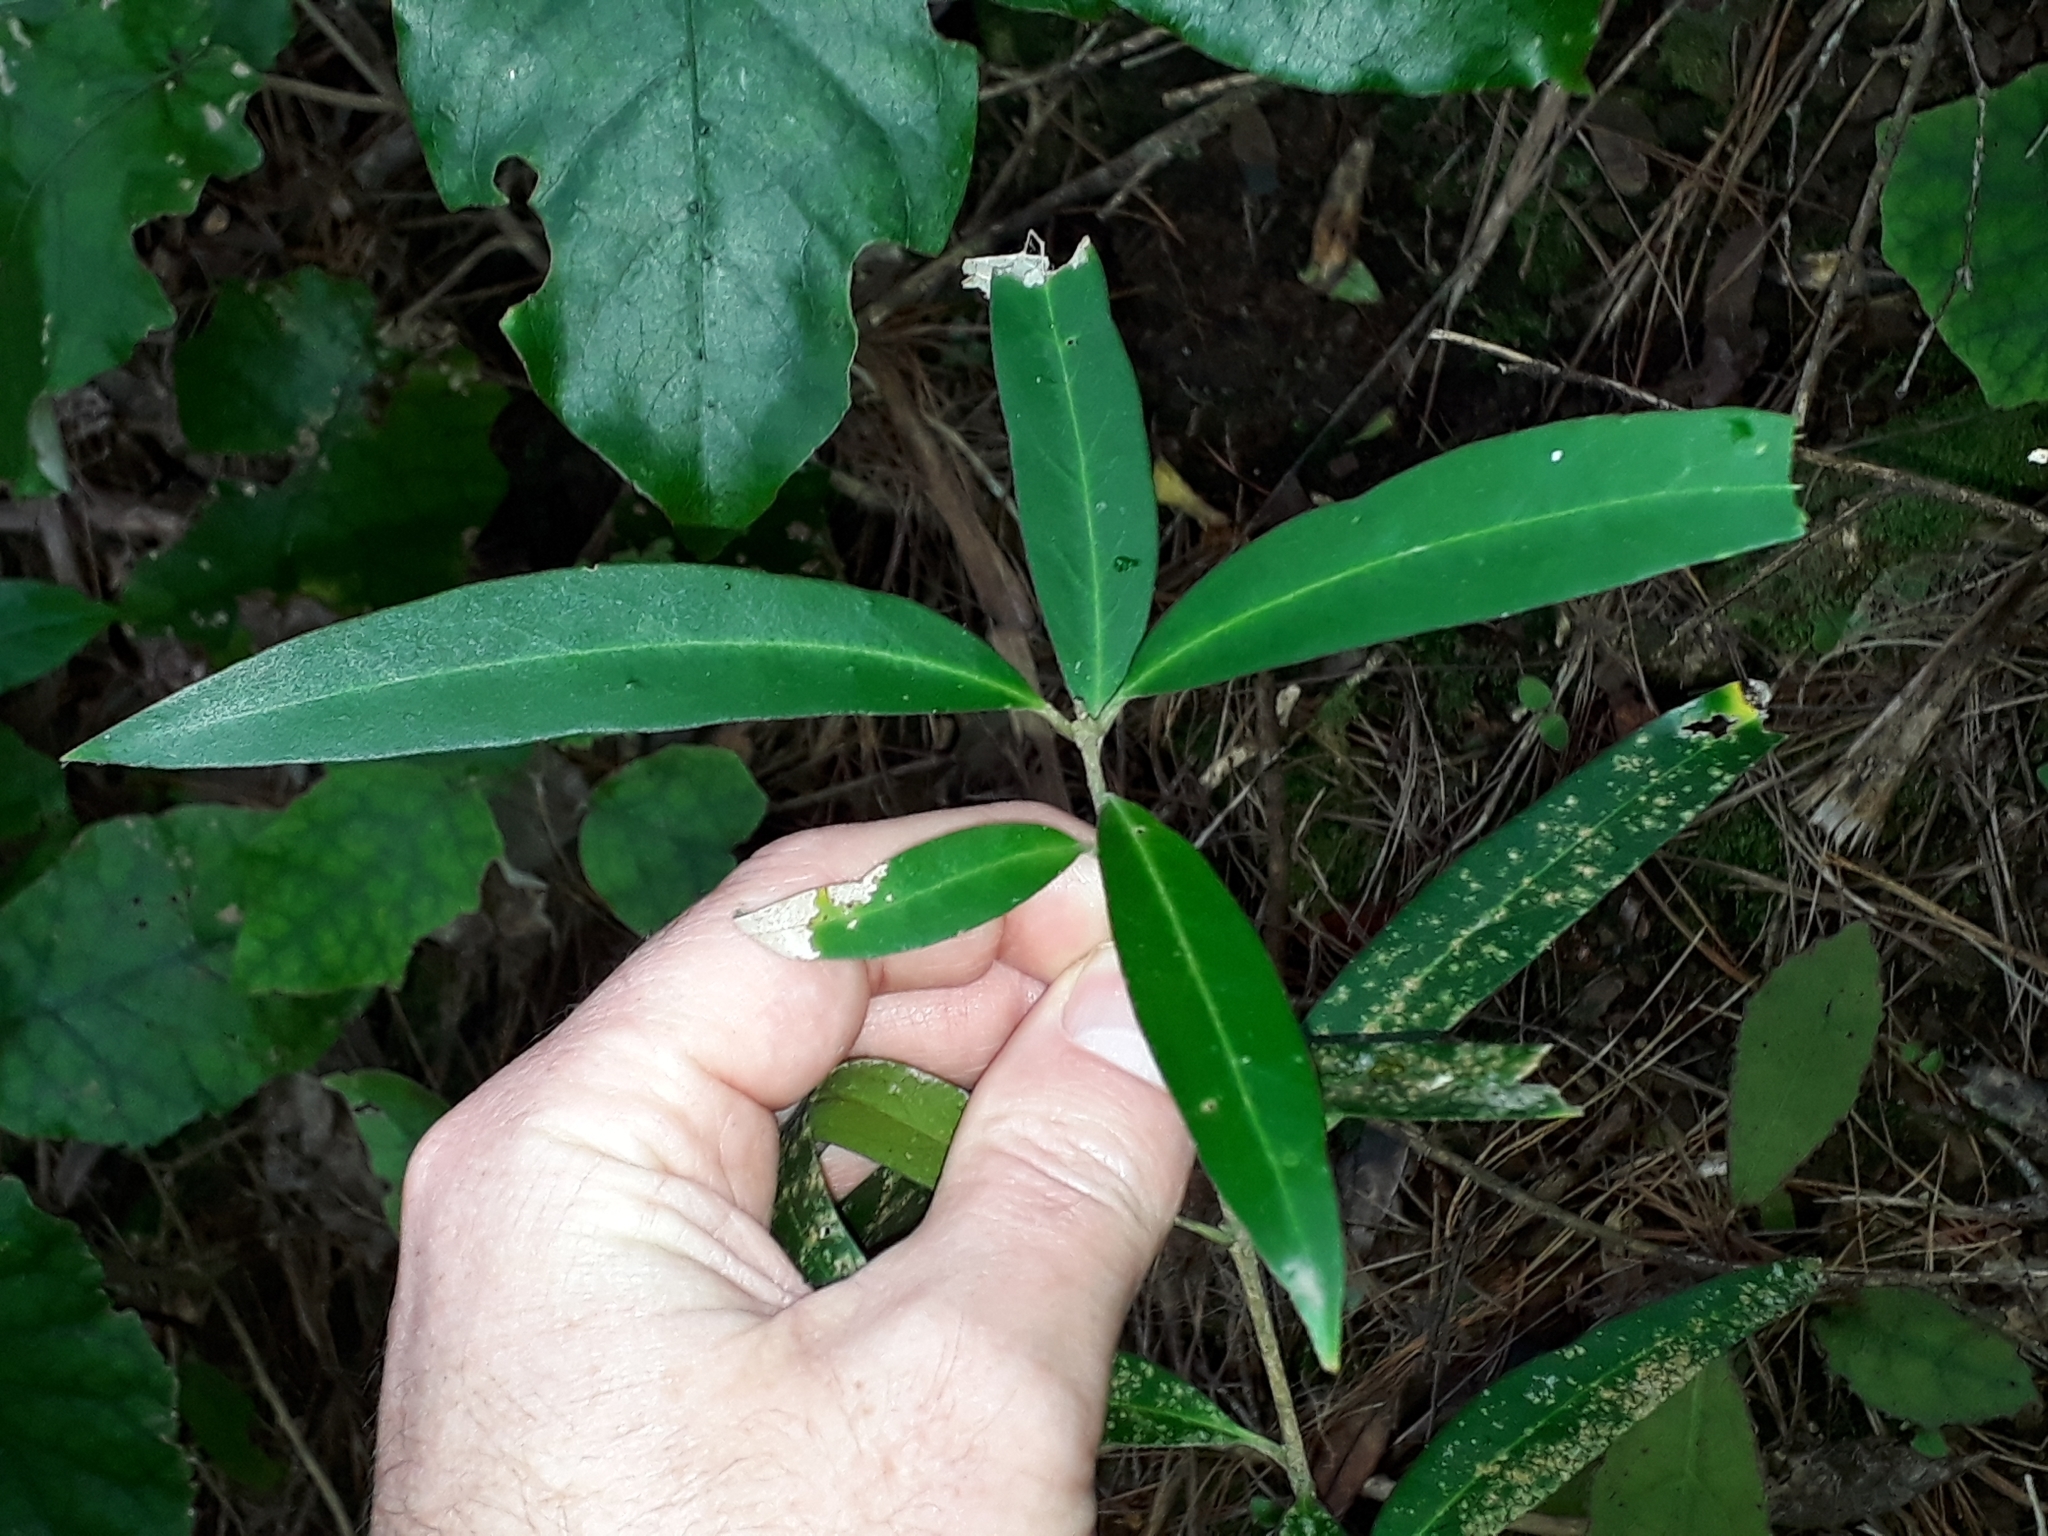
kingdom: Plantae
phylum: Tracheophyta
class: Magnoliopsida
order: Lamiales
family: Oleaceae
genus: Nestegis
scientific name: Nestegis lanceolata
